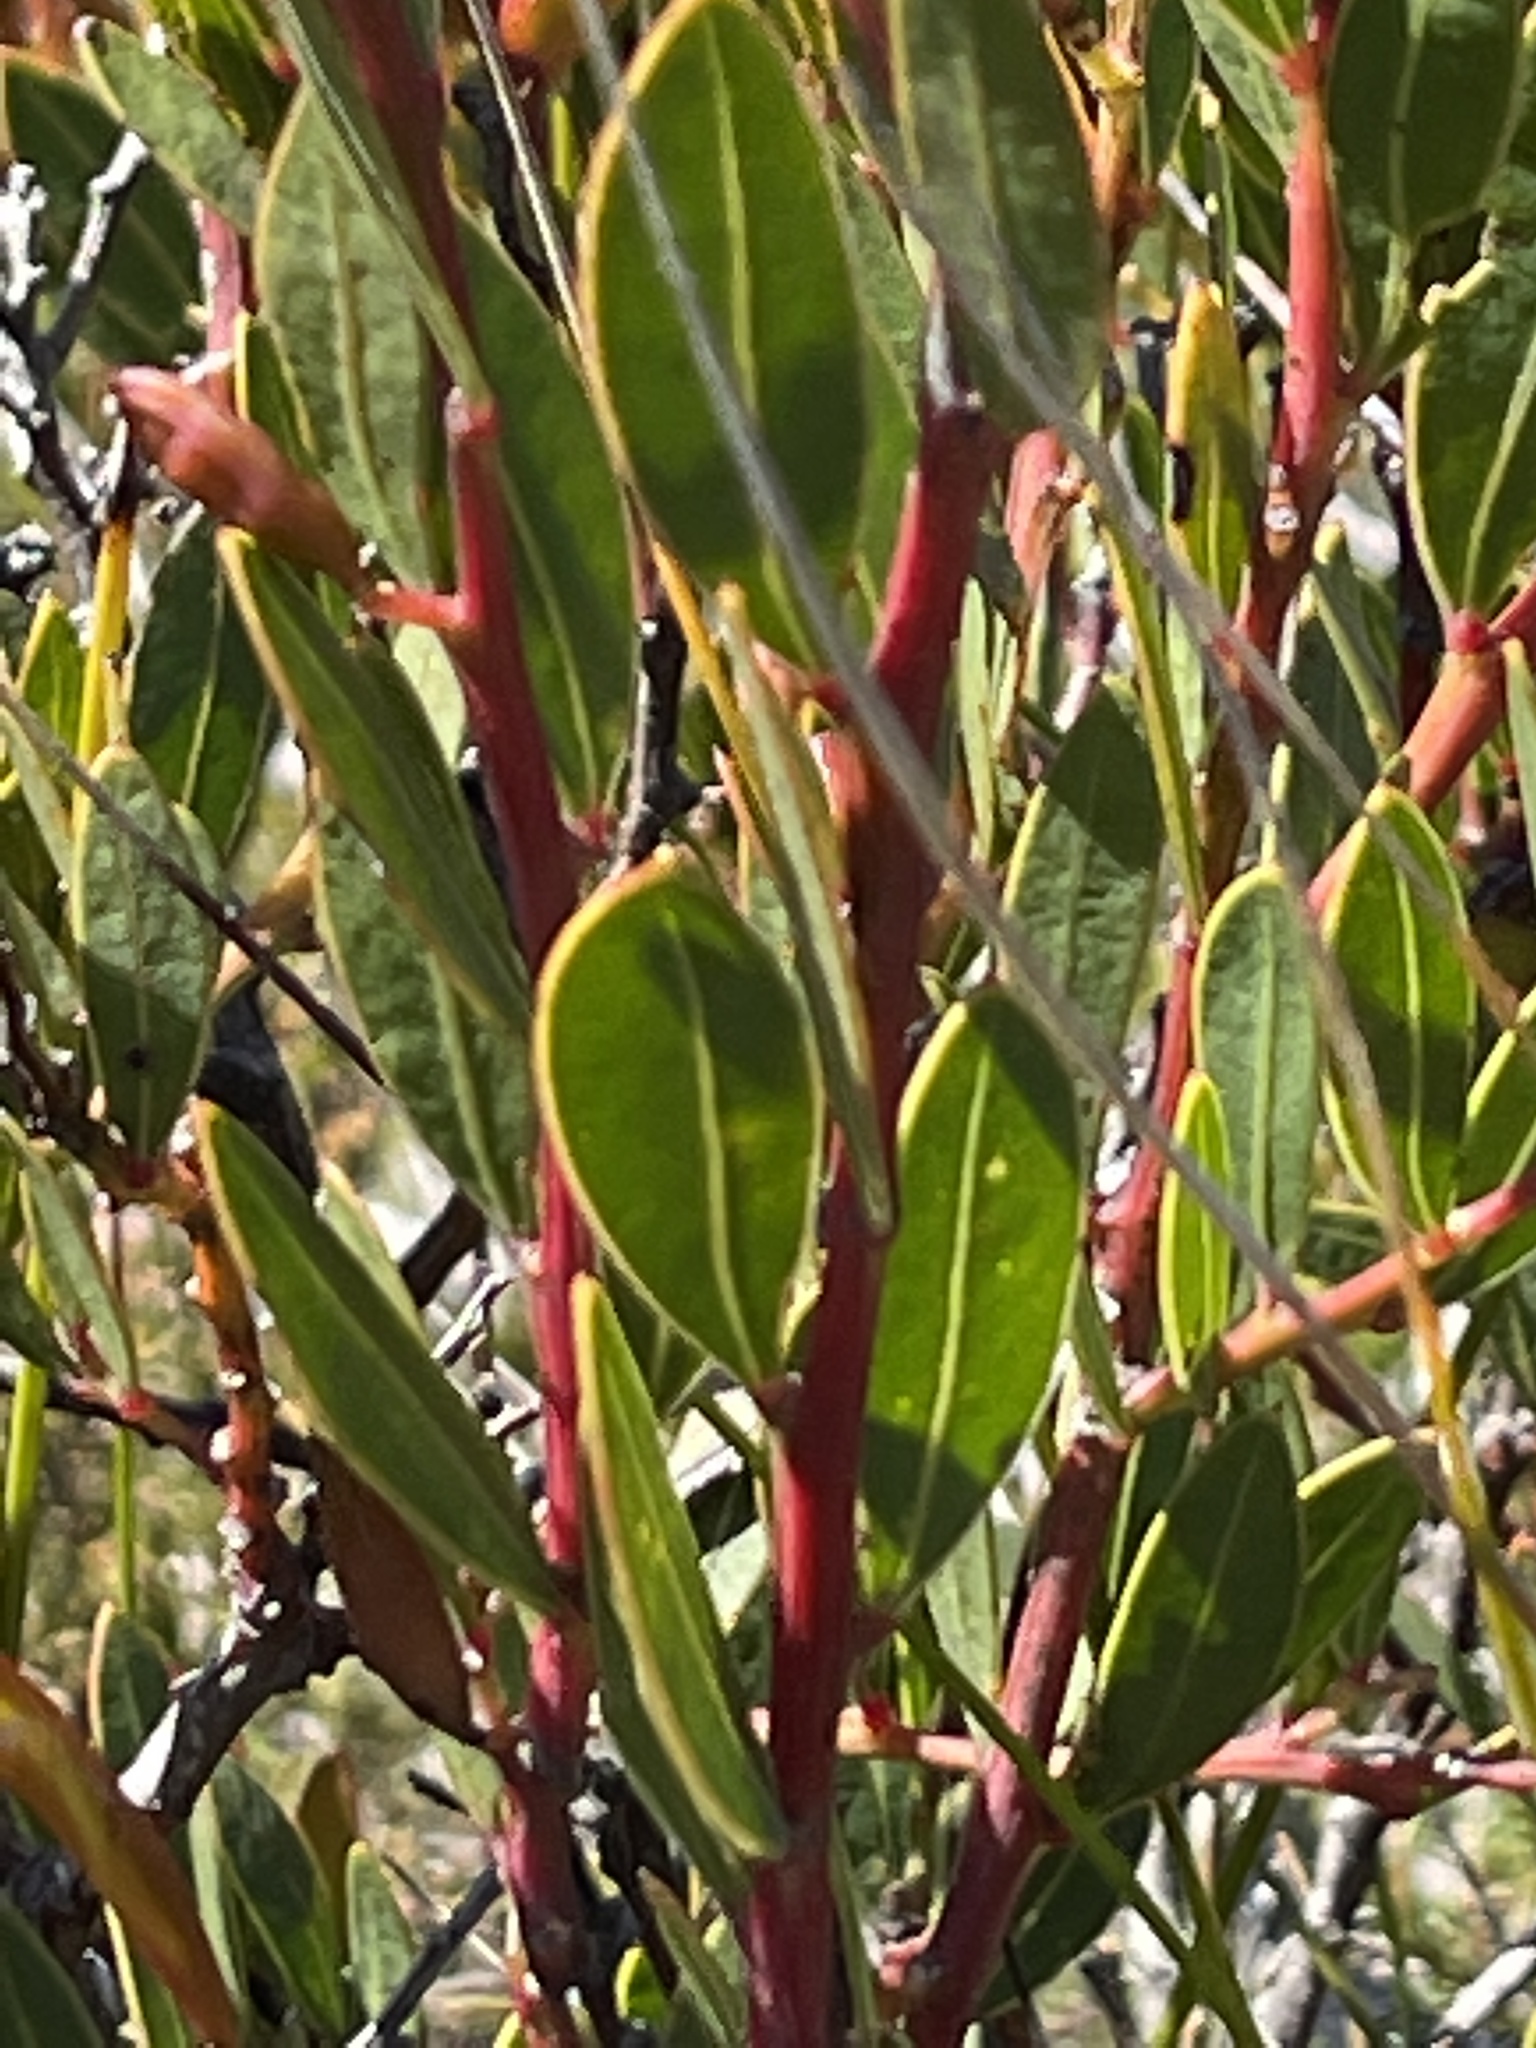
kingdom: Plantae
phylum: Tracheophyta
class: Magnoliopsida
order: Fabales
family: Fabaceae
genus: Acacia
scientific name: Acacia myrtifolia
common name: Myrtle wattle
